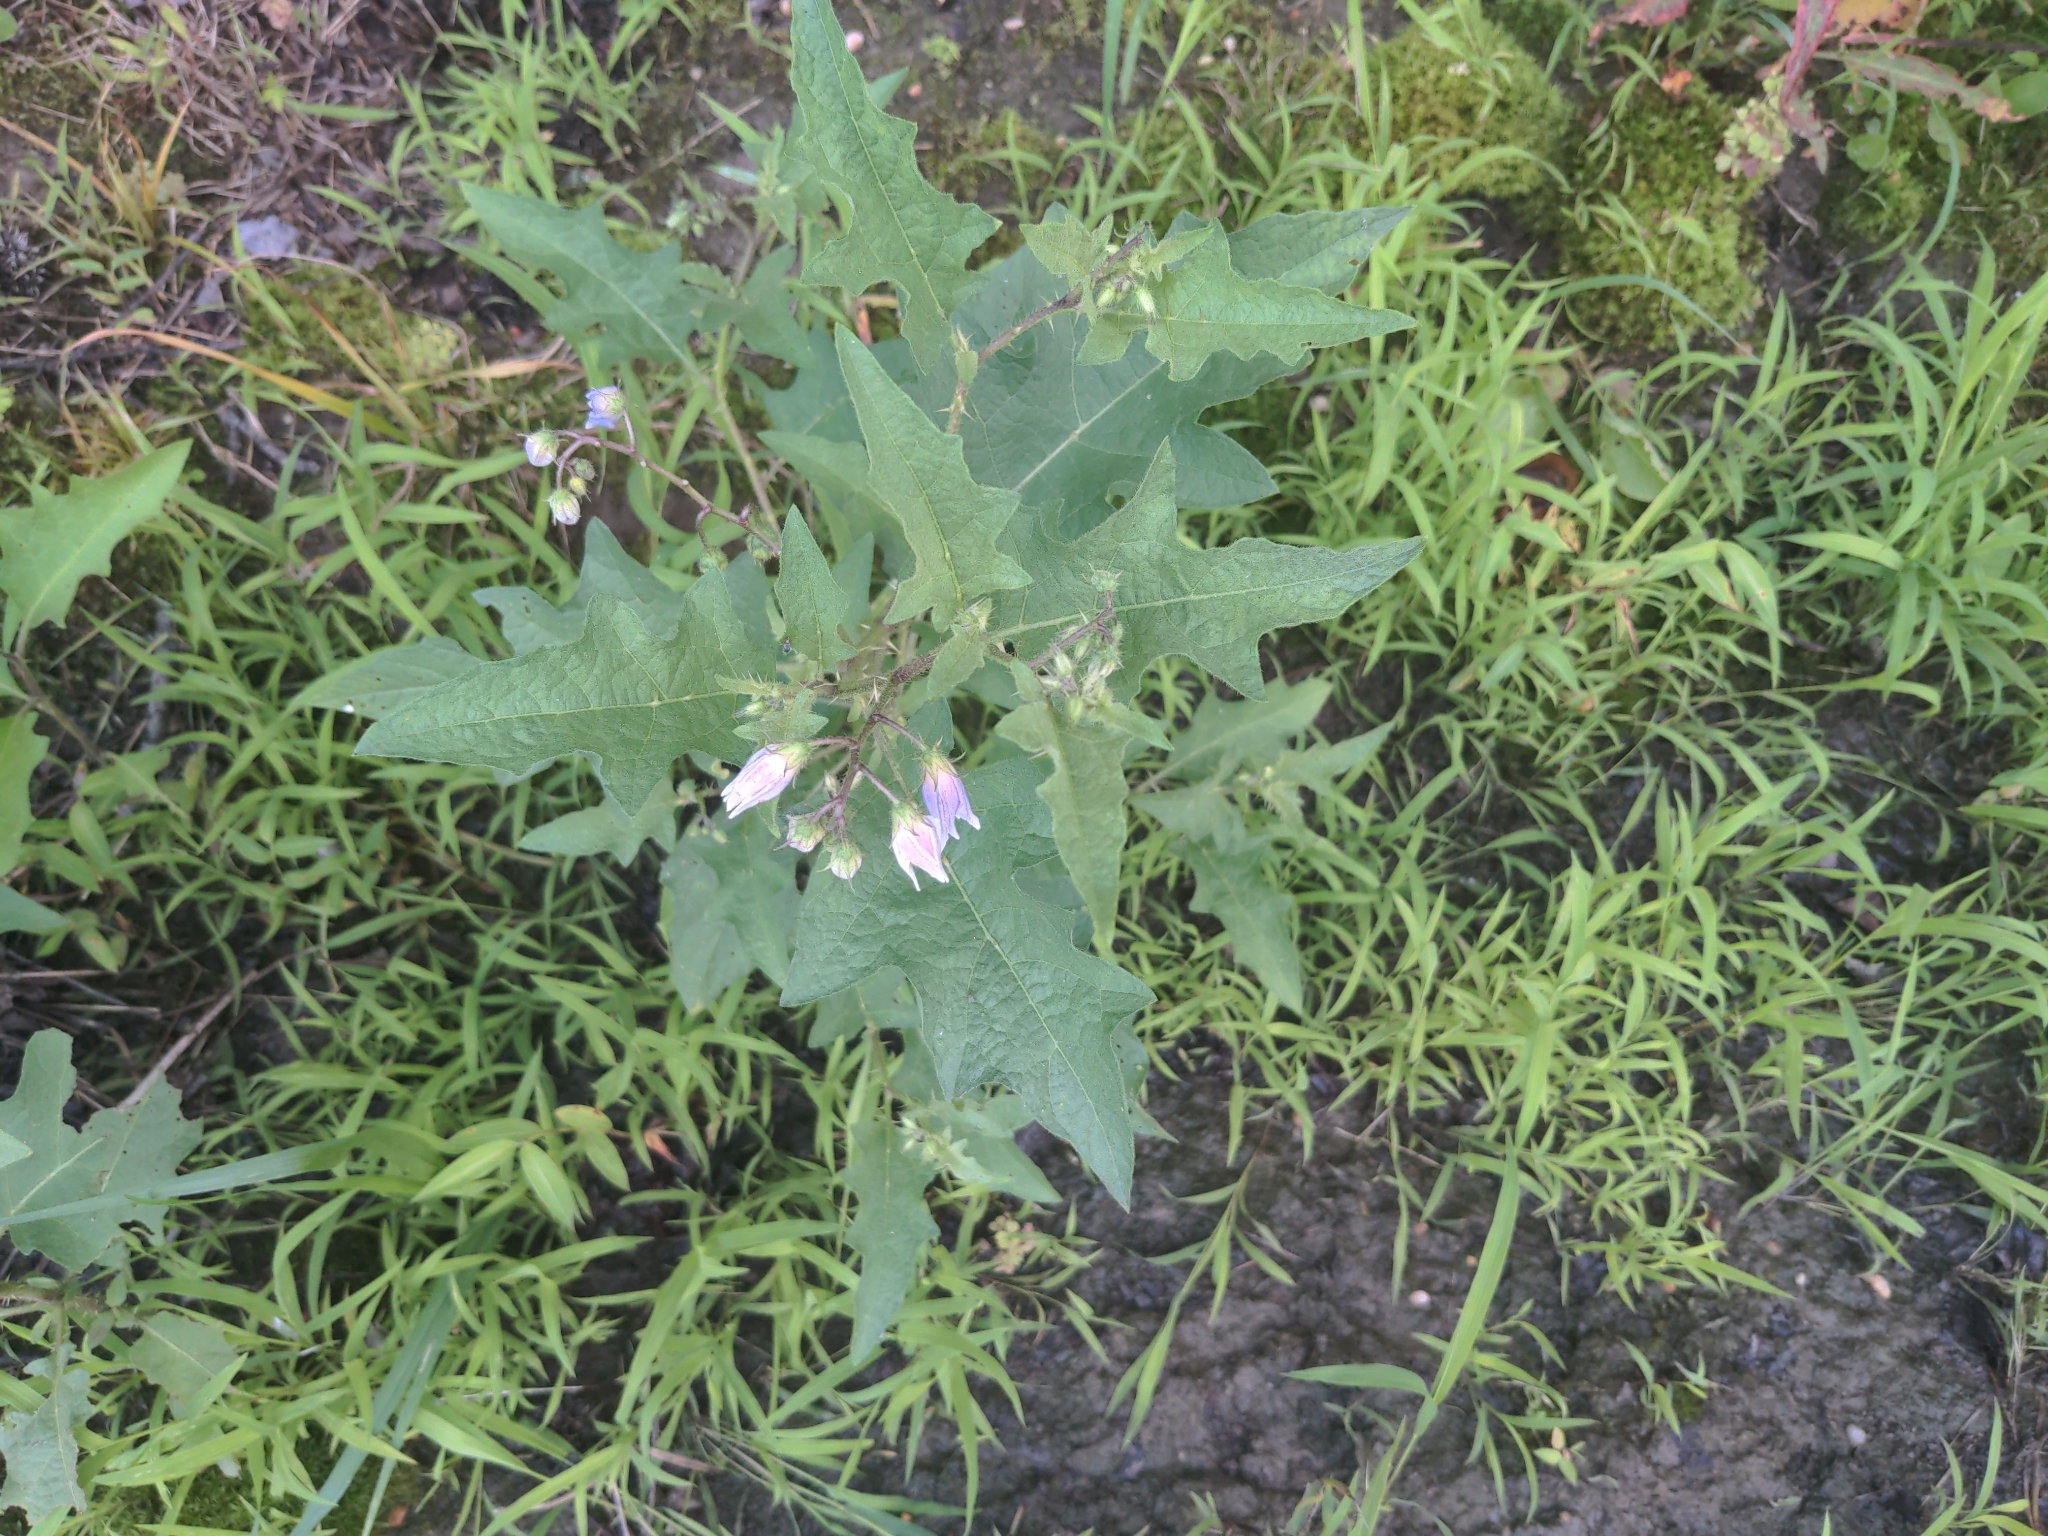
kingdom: Plantae
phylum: Tracheophyta
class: Magnoliopsida
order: Solanales
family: Solanaceae
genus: Solanum
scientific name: Solanum carolinense
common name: Horse-nettle
